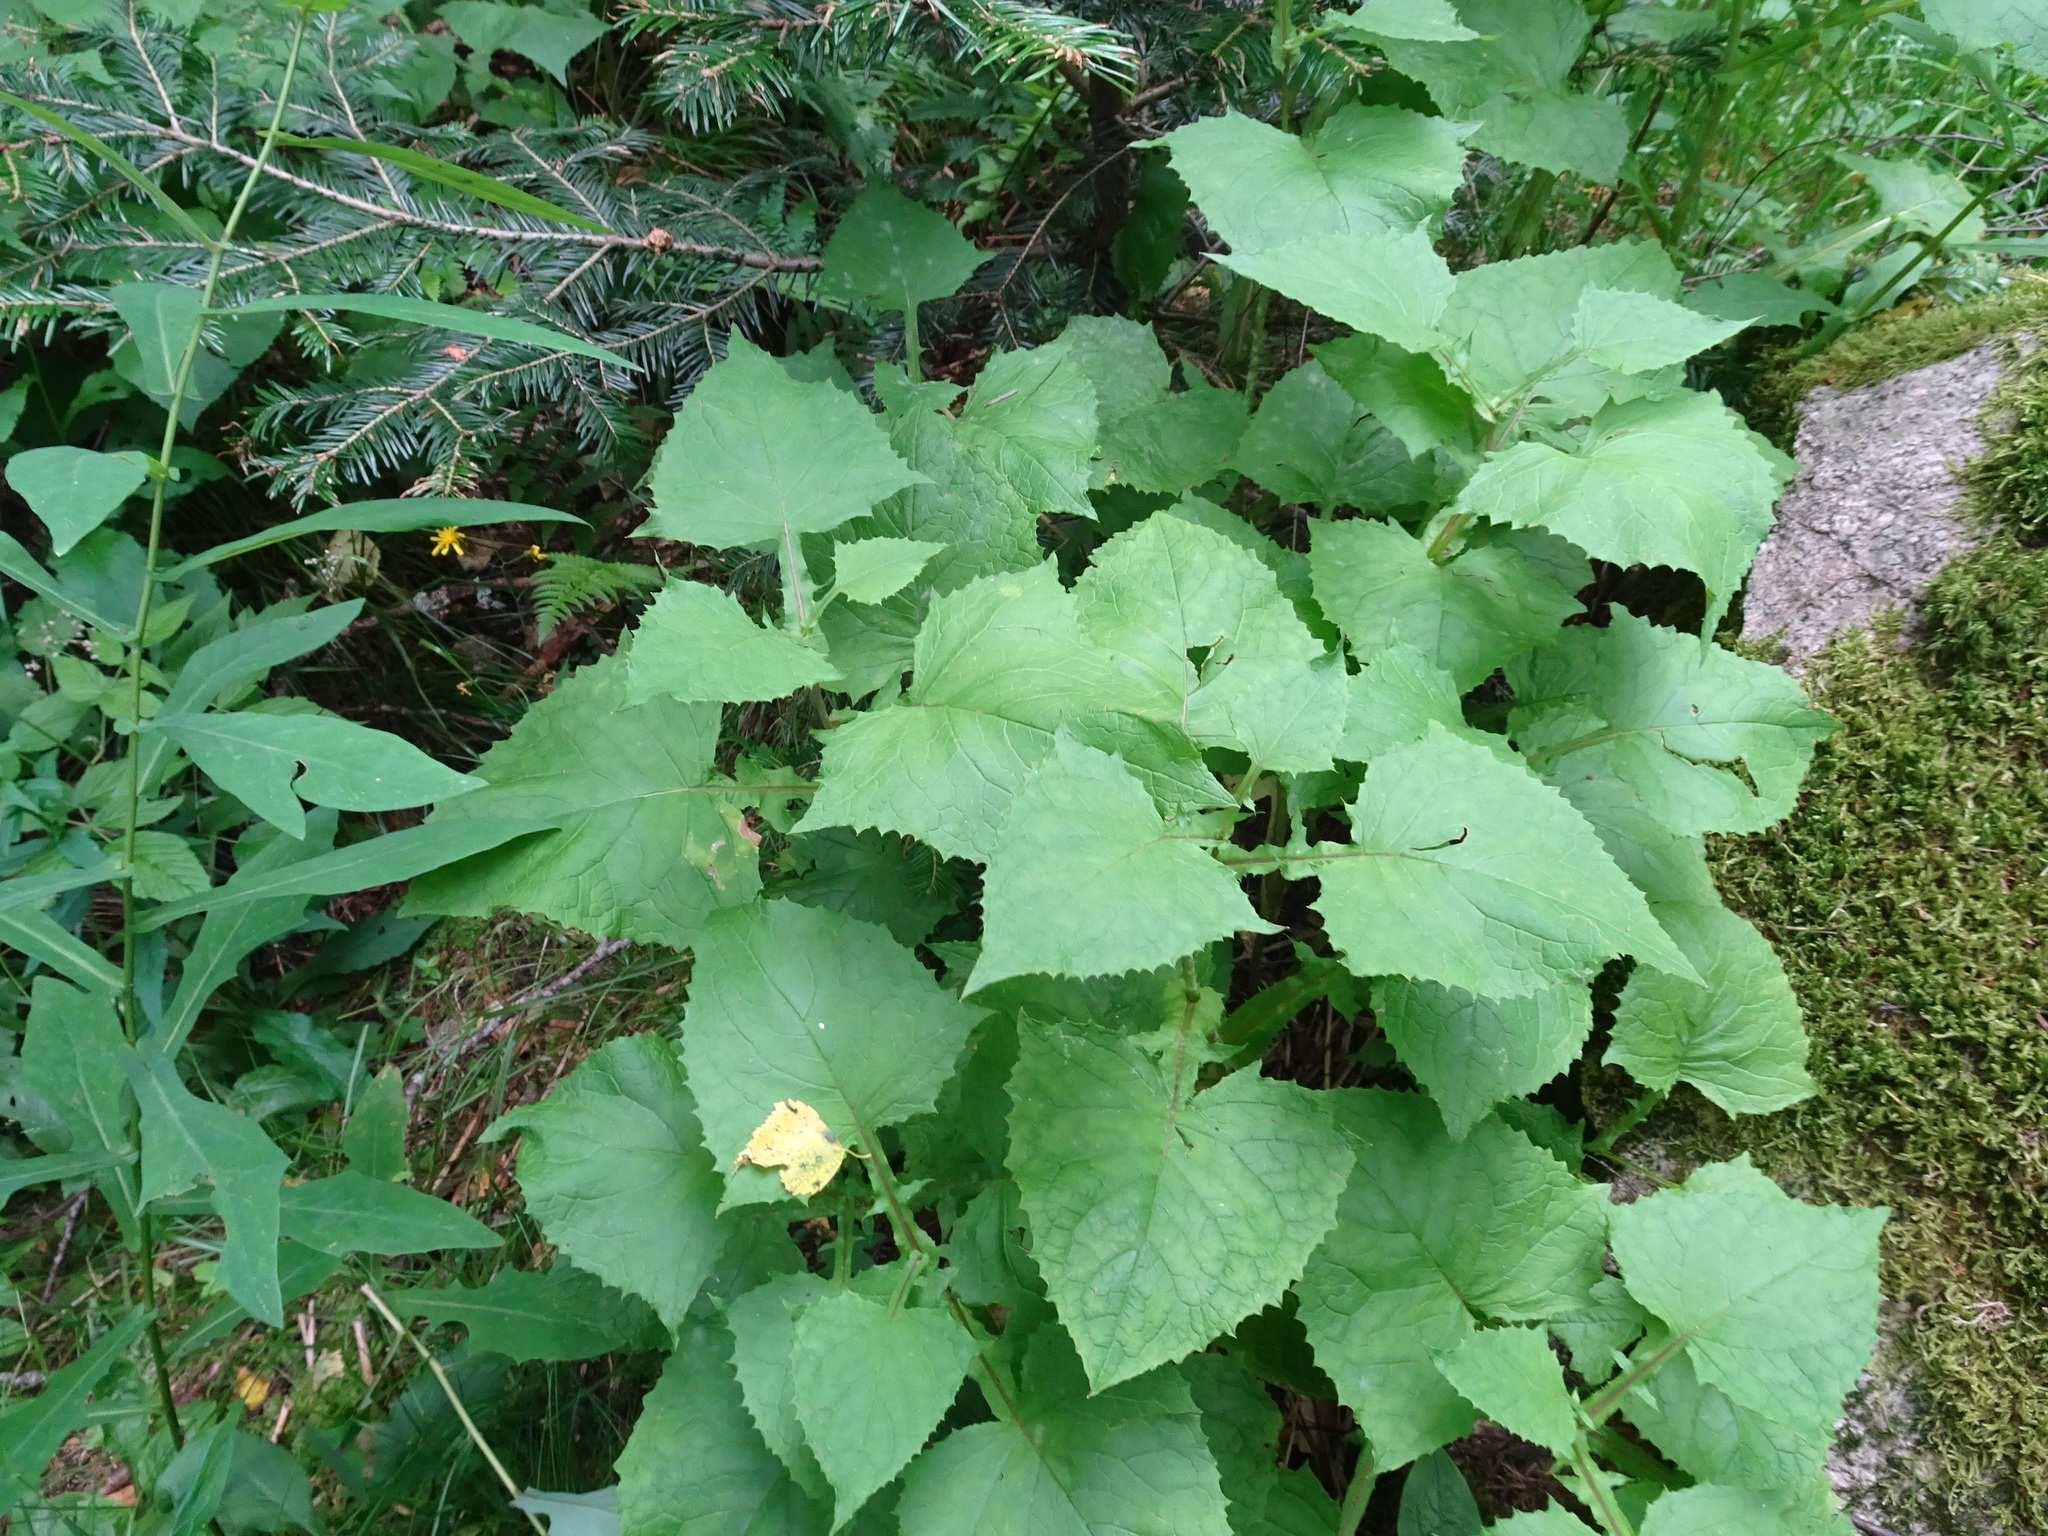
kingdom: Plantae
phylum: Tracheophyta
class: Magnoliopsida
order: Asterales
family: Asteraceae
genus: Cicerbita
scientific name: Cicerbita alpina
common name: Alpine blue-sow-thistle
